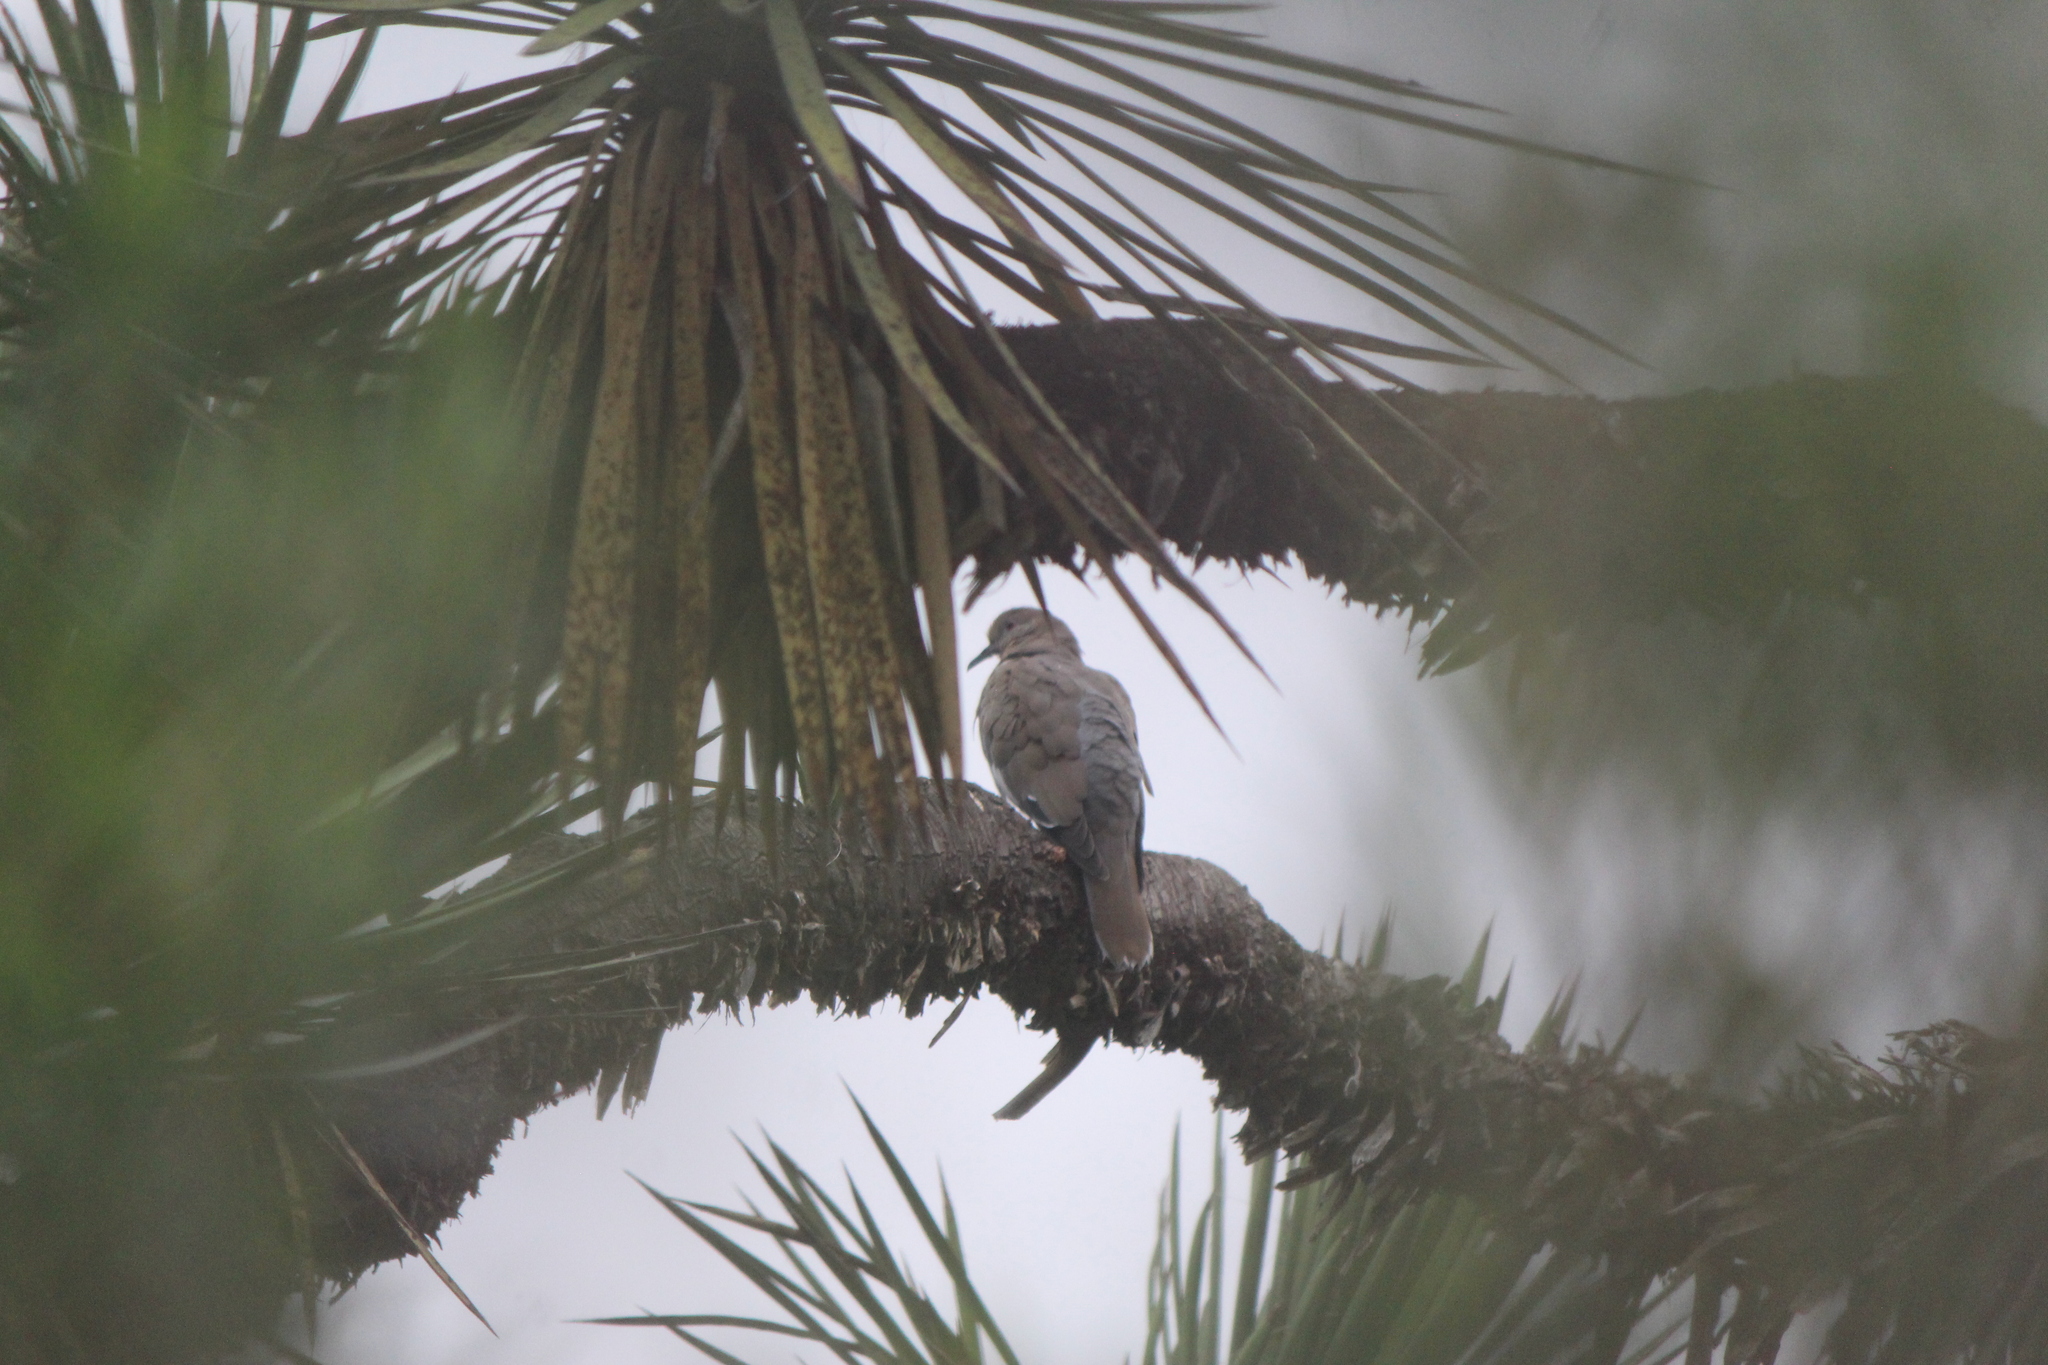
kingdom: Animalia
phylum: Chordata
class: Aves
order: Columbiformes
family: Columbidae
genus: Zenaida
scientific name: Zenaida asiatica
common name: White-winged dove
